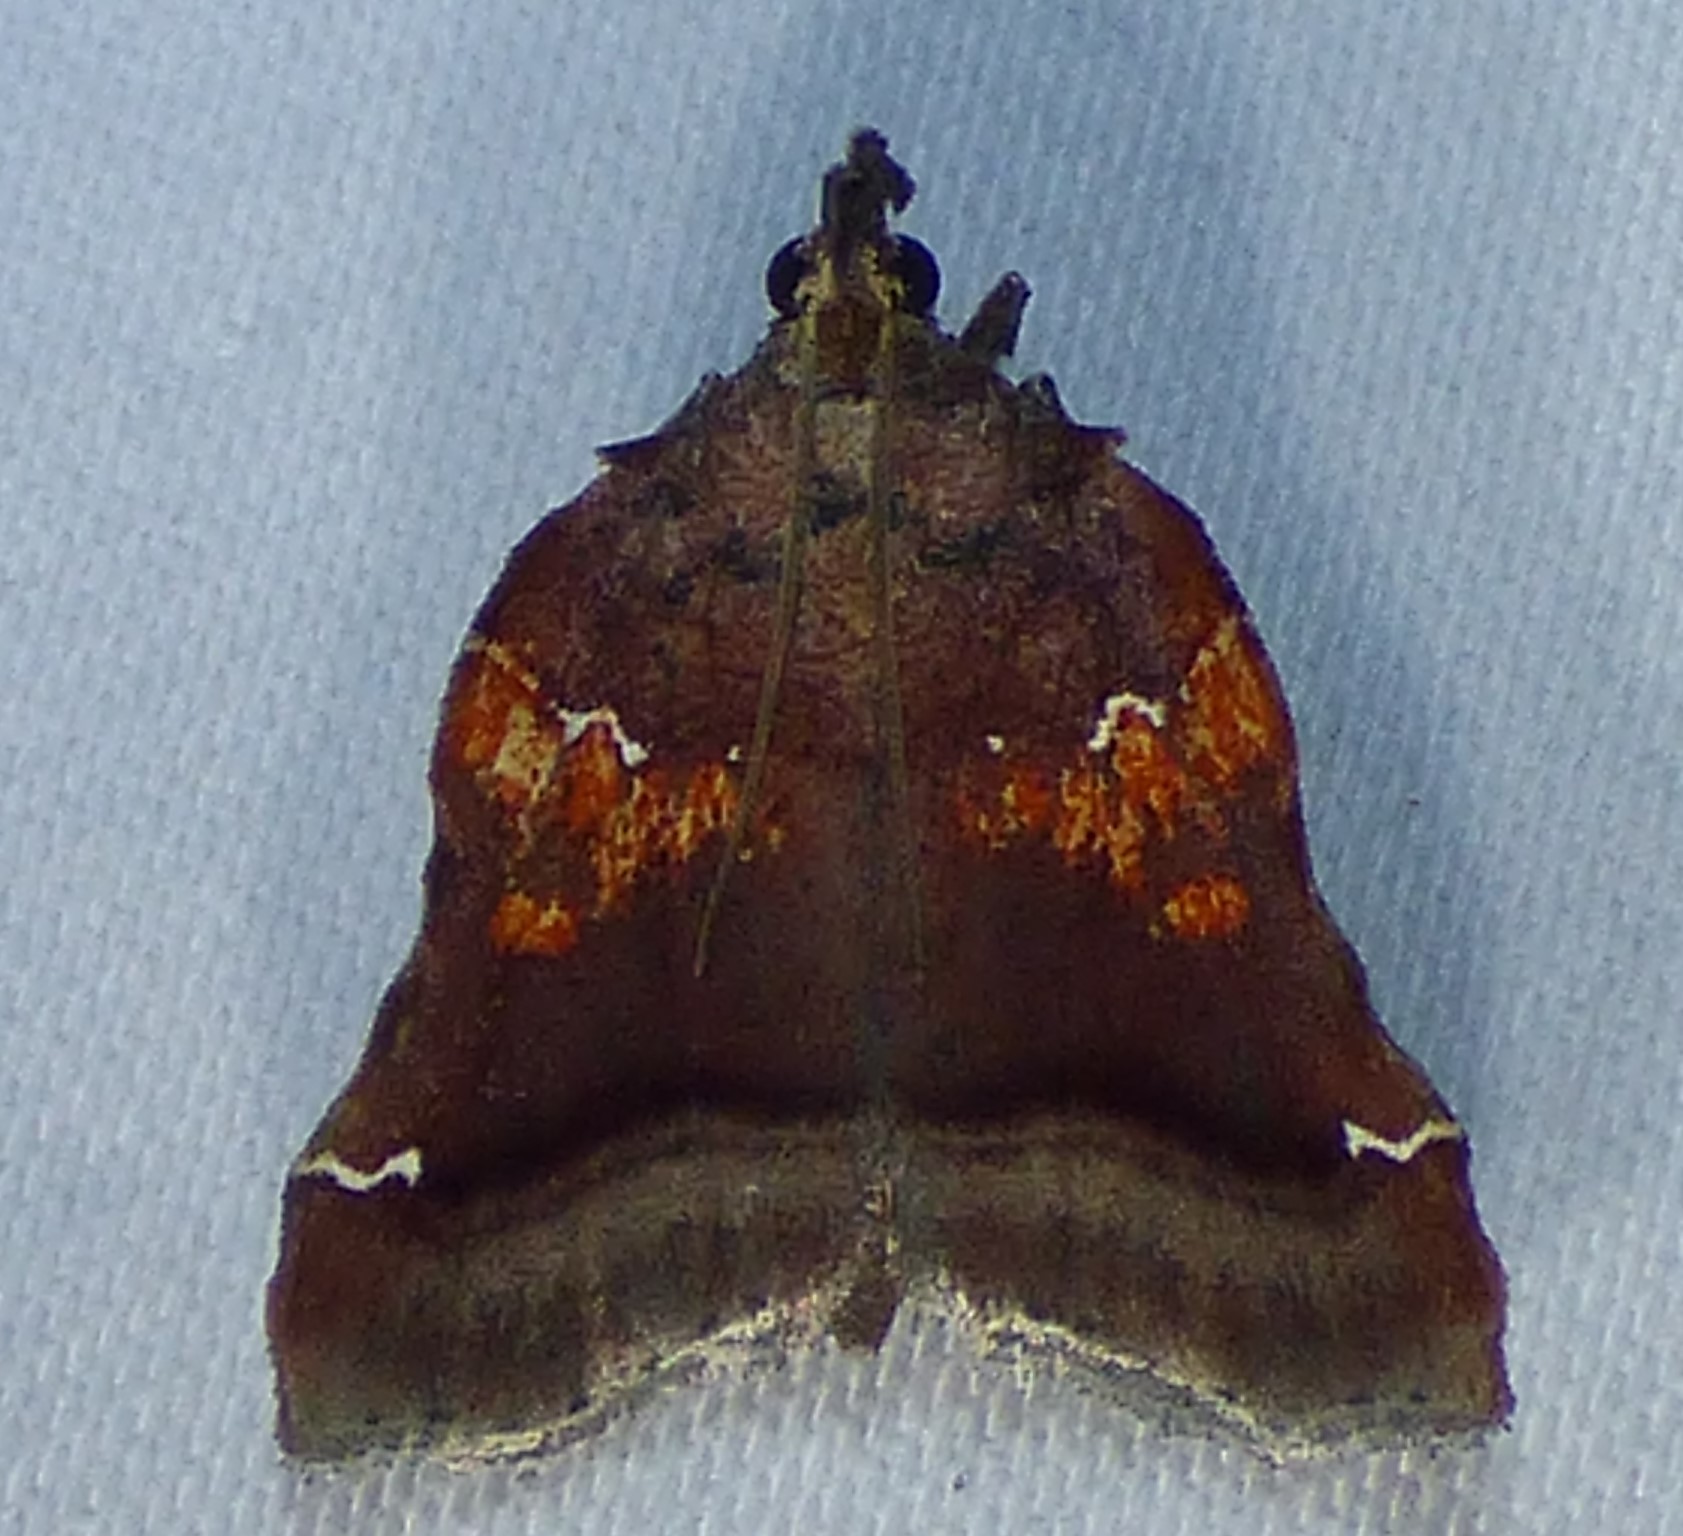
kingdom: Animalia
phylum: Arthropoda
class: Insecta
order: Lepidoptera
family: Pyralidae
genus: Clydonopteron
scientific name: Clydonopteron sacculana
